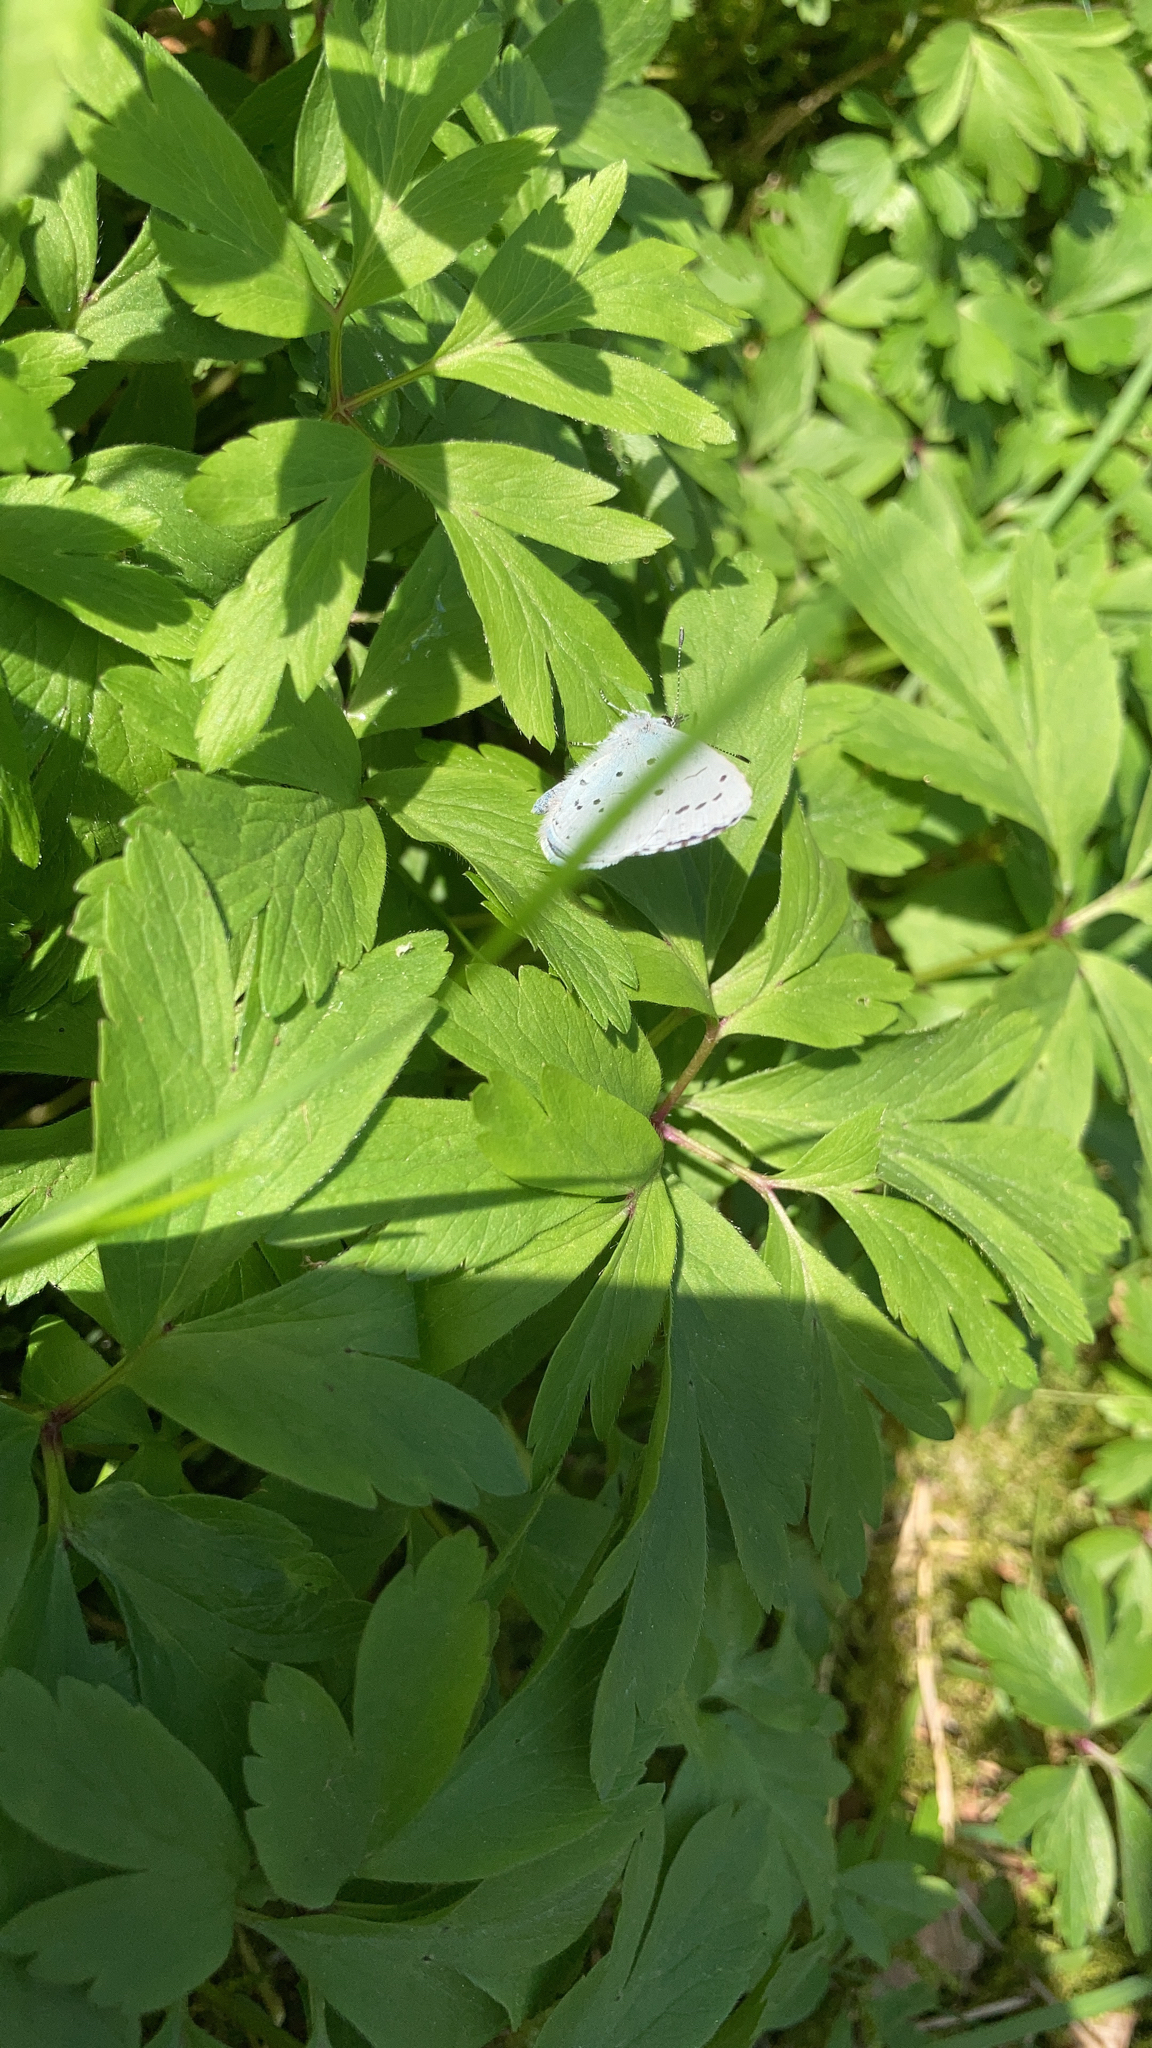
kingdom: Animalia
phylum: Arthropoda
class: Insecta
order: Lepidoptera
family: Lycaenidae
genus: Celastrina
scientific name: Celastrina argiolus
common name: Holly blue
